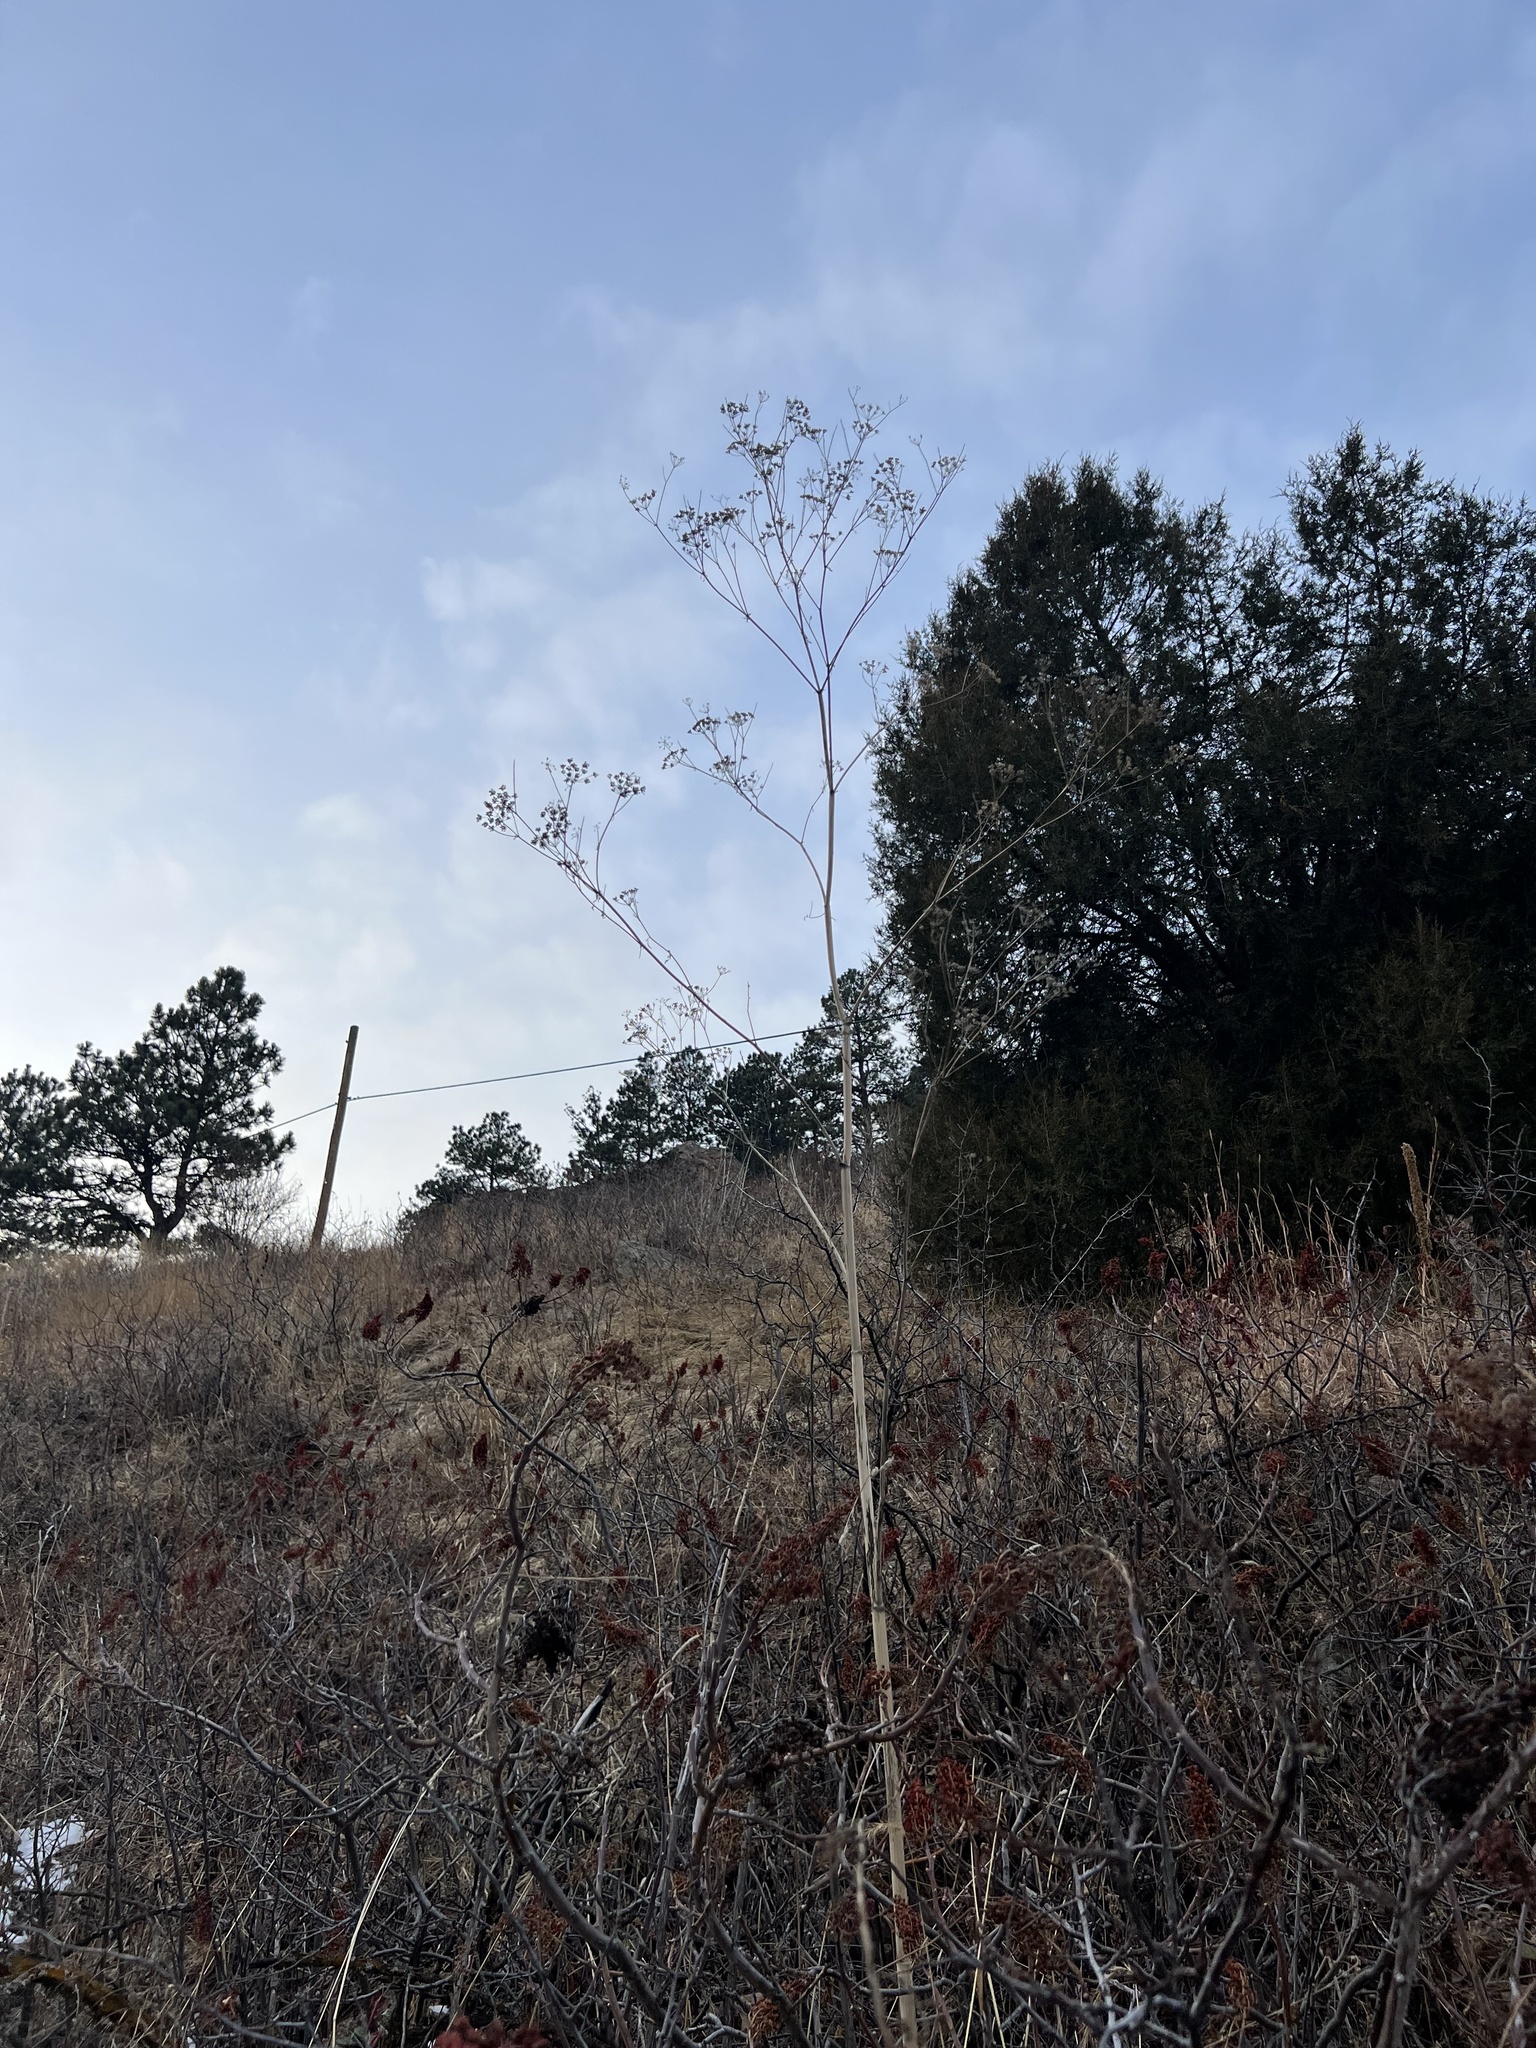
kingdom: Plantae
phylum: Tracheophyta
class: Magnoliopsida
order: Apiales
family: Apiaceae
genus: Conium
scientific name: Conium maculatum
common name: Hemlock
